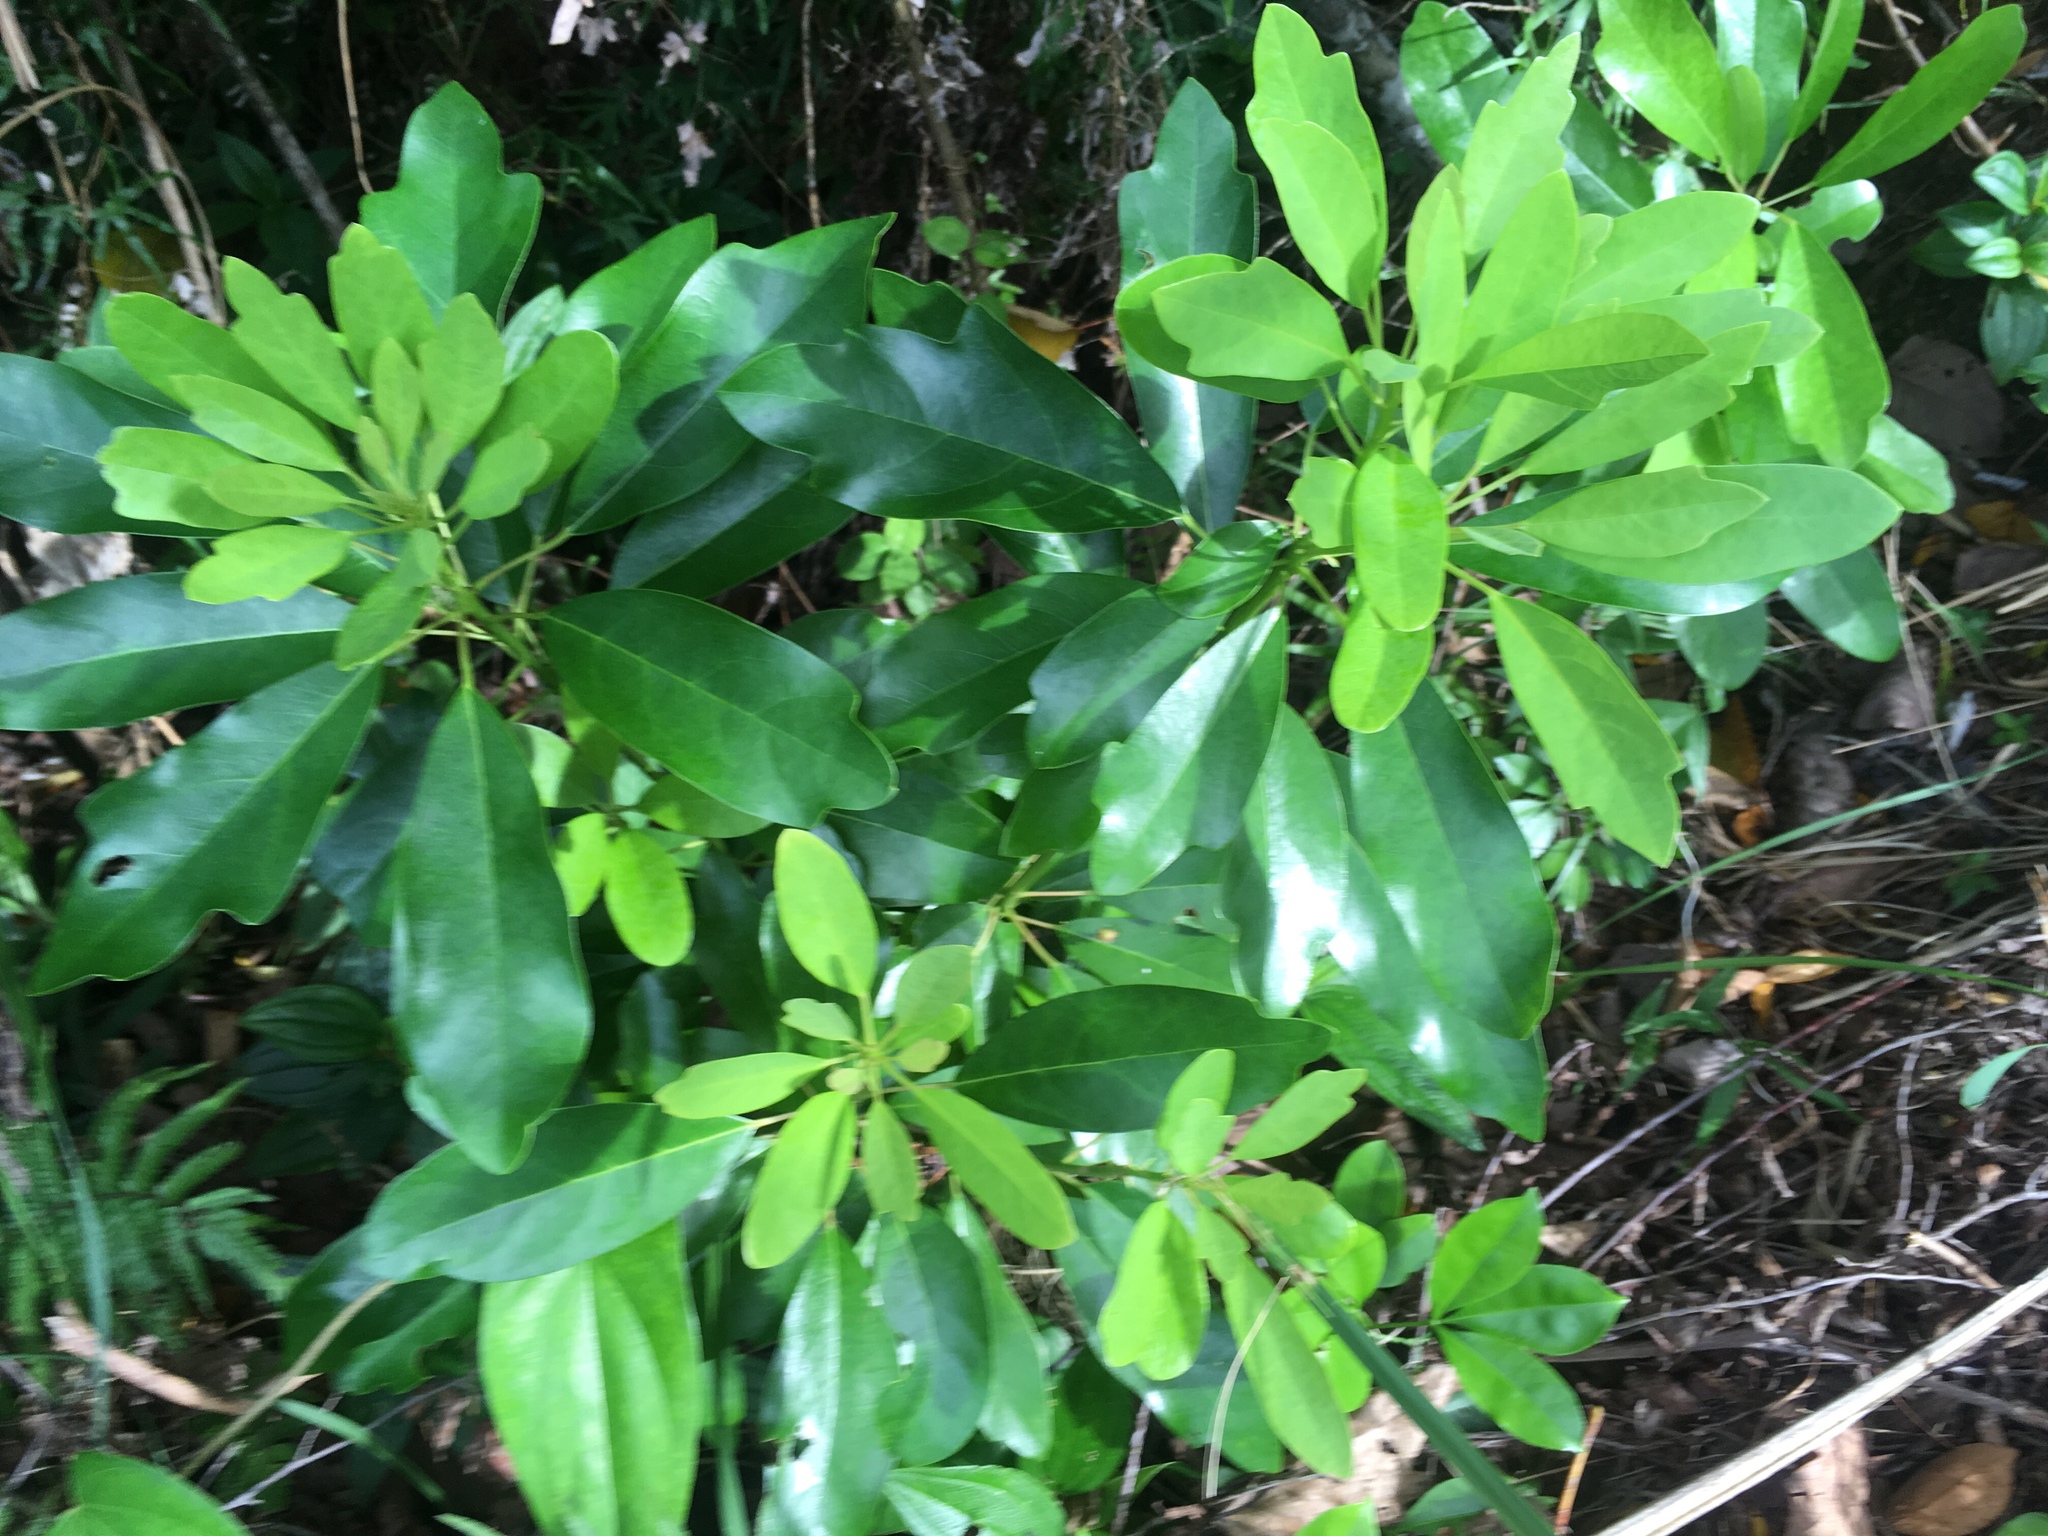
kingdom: Plantae
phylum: Tracheophyta
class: Magnoliopsida
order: Saxifragales
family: Daphniphyllaceae
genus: Daphniphyllum
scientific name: Daphniphyllum pentandrum
